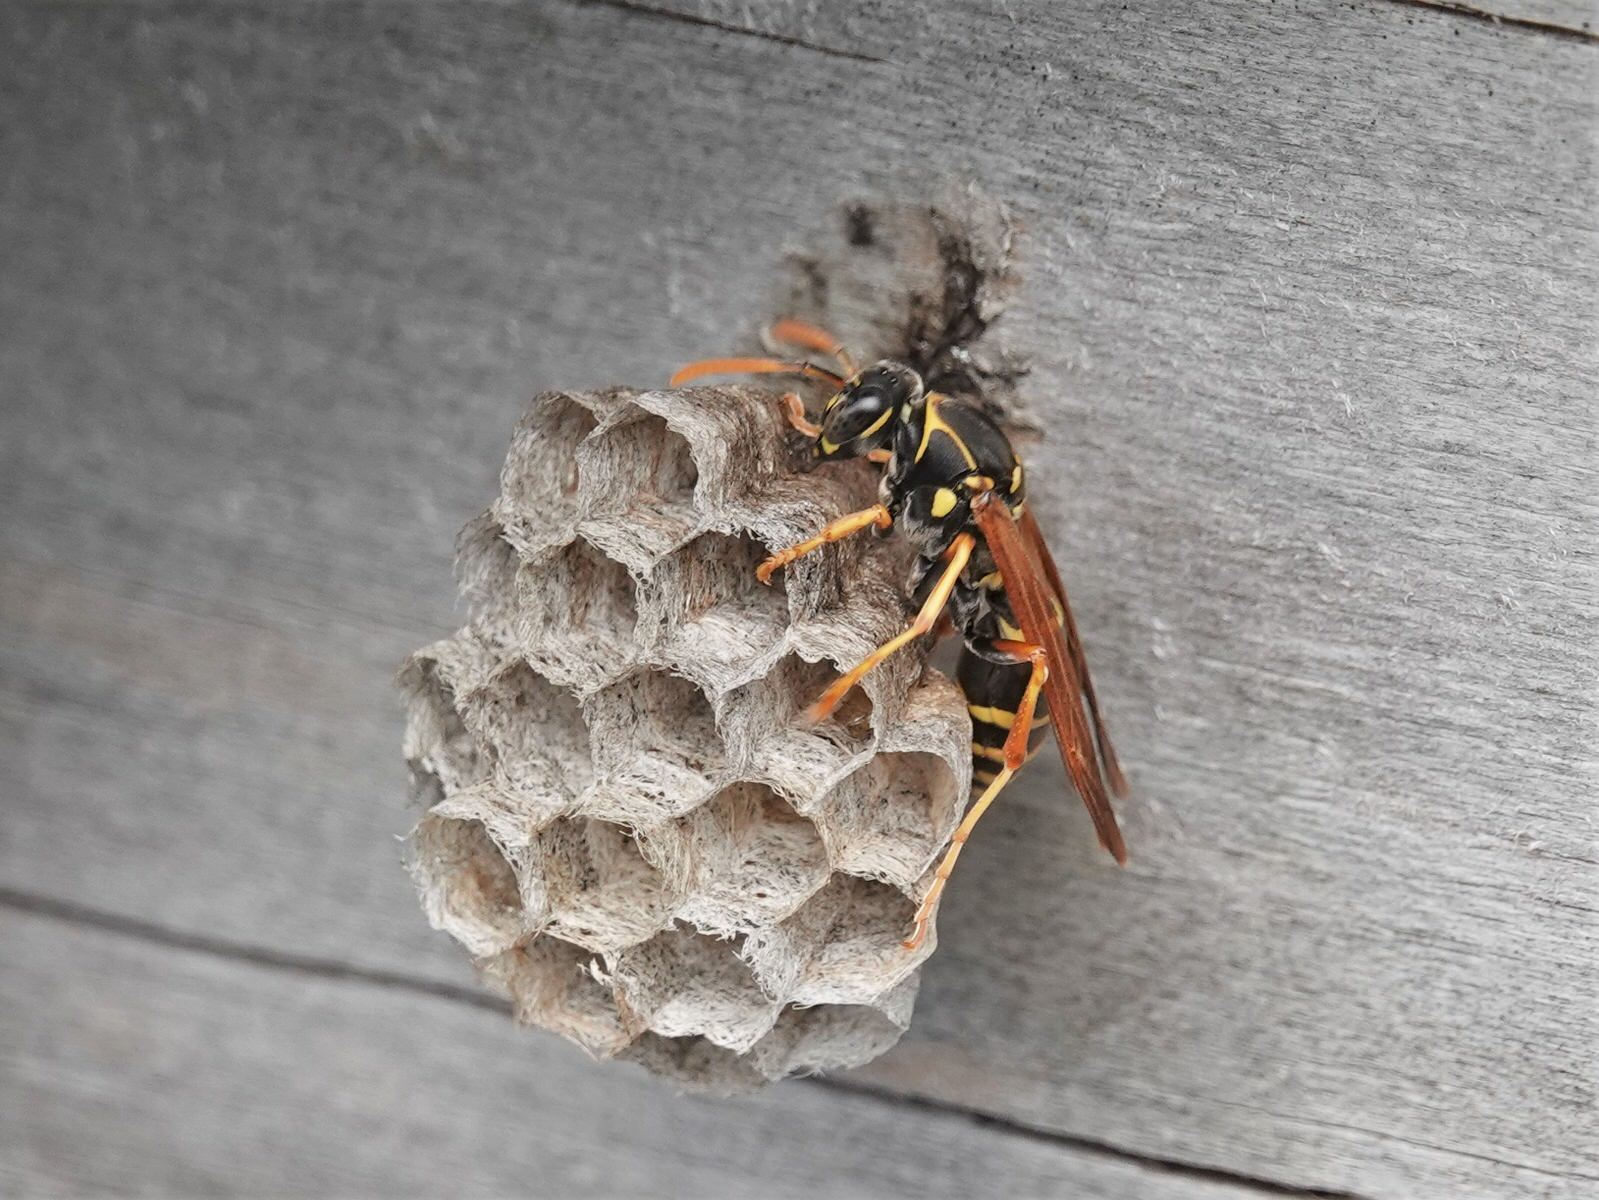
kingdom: Animalia
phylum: Arthropoda
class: Insecta
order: Hymenoptera
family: Eumenidae
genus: Polistes
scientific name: Polistes chinensis
